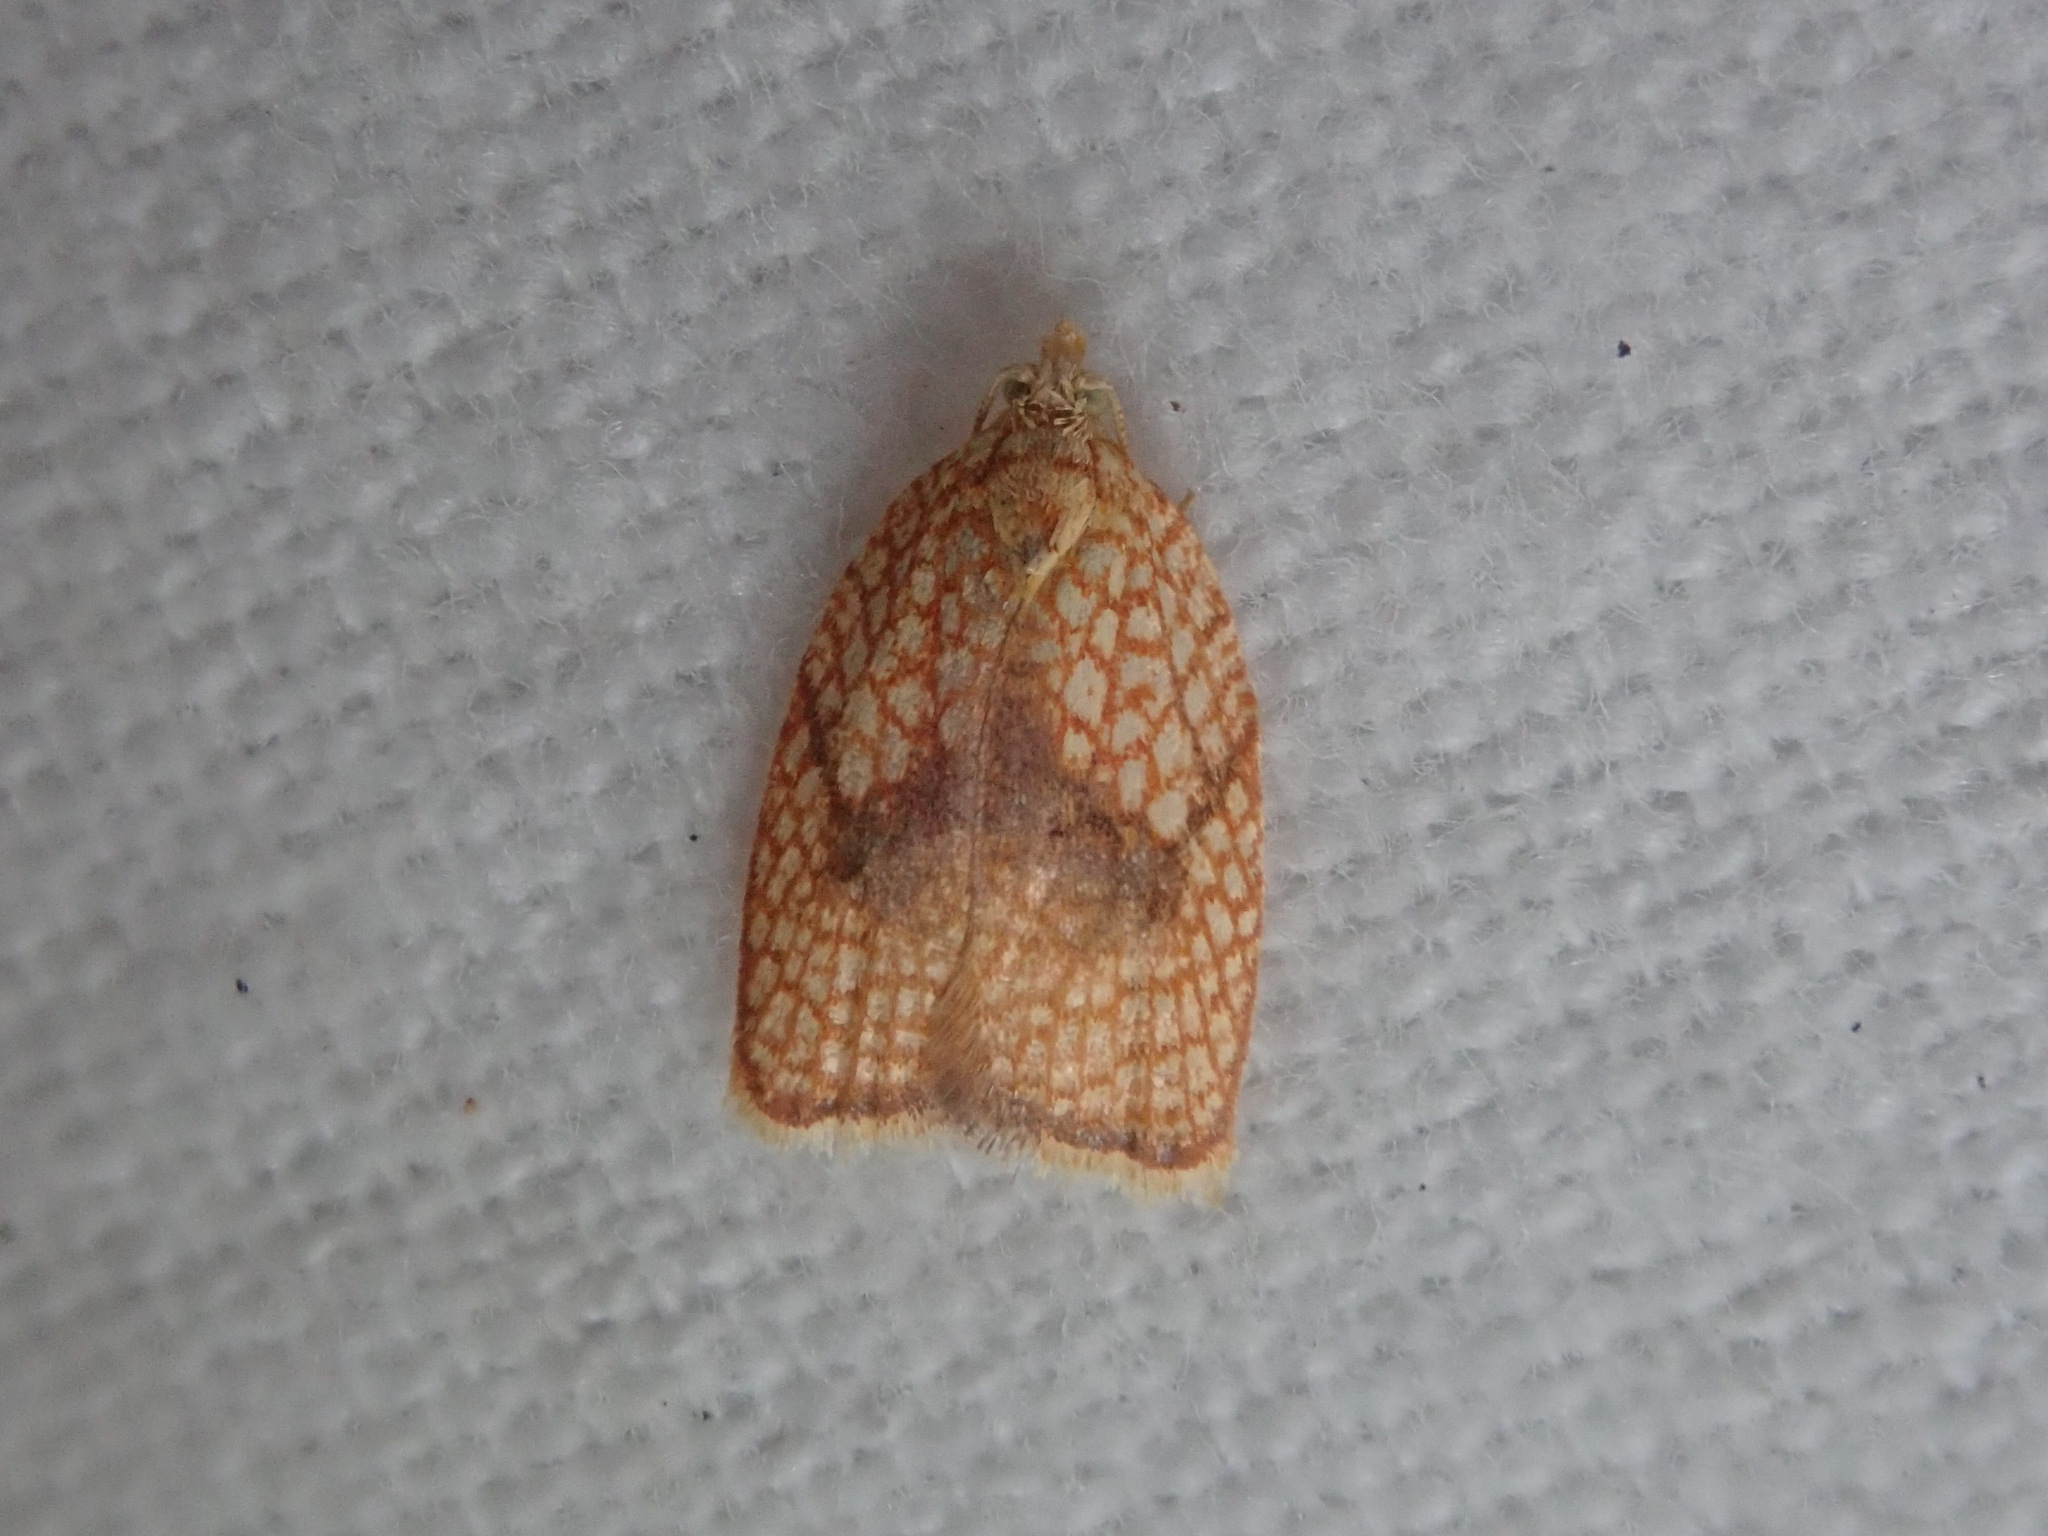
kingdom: Animalia
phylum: Arthropoda
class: Insecta
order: Lepidoptera
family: Tortricidae
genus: Acleris
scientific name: Acleris forsskaleana
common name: Maple button
